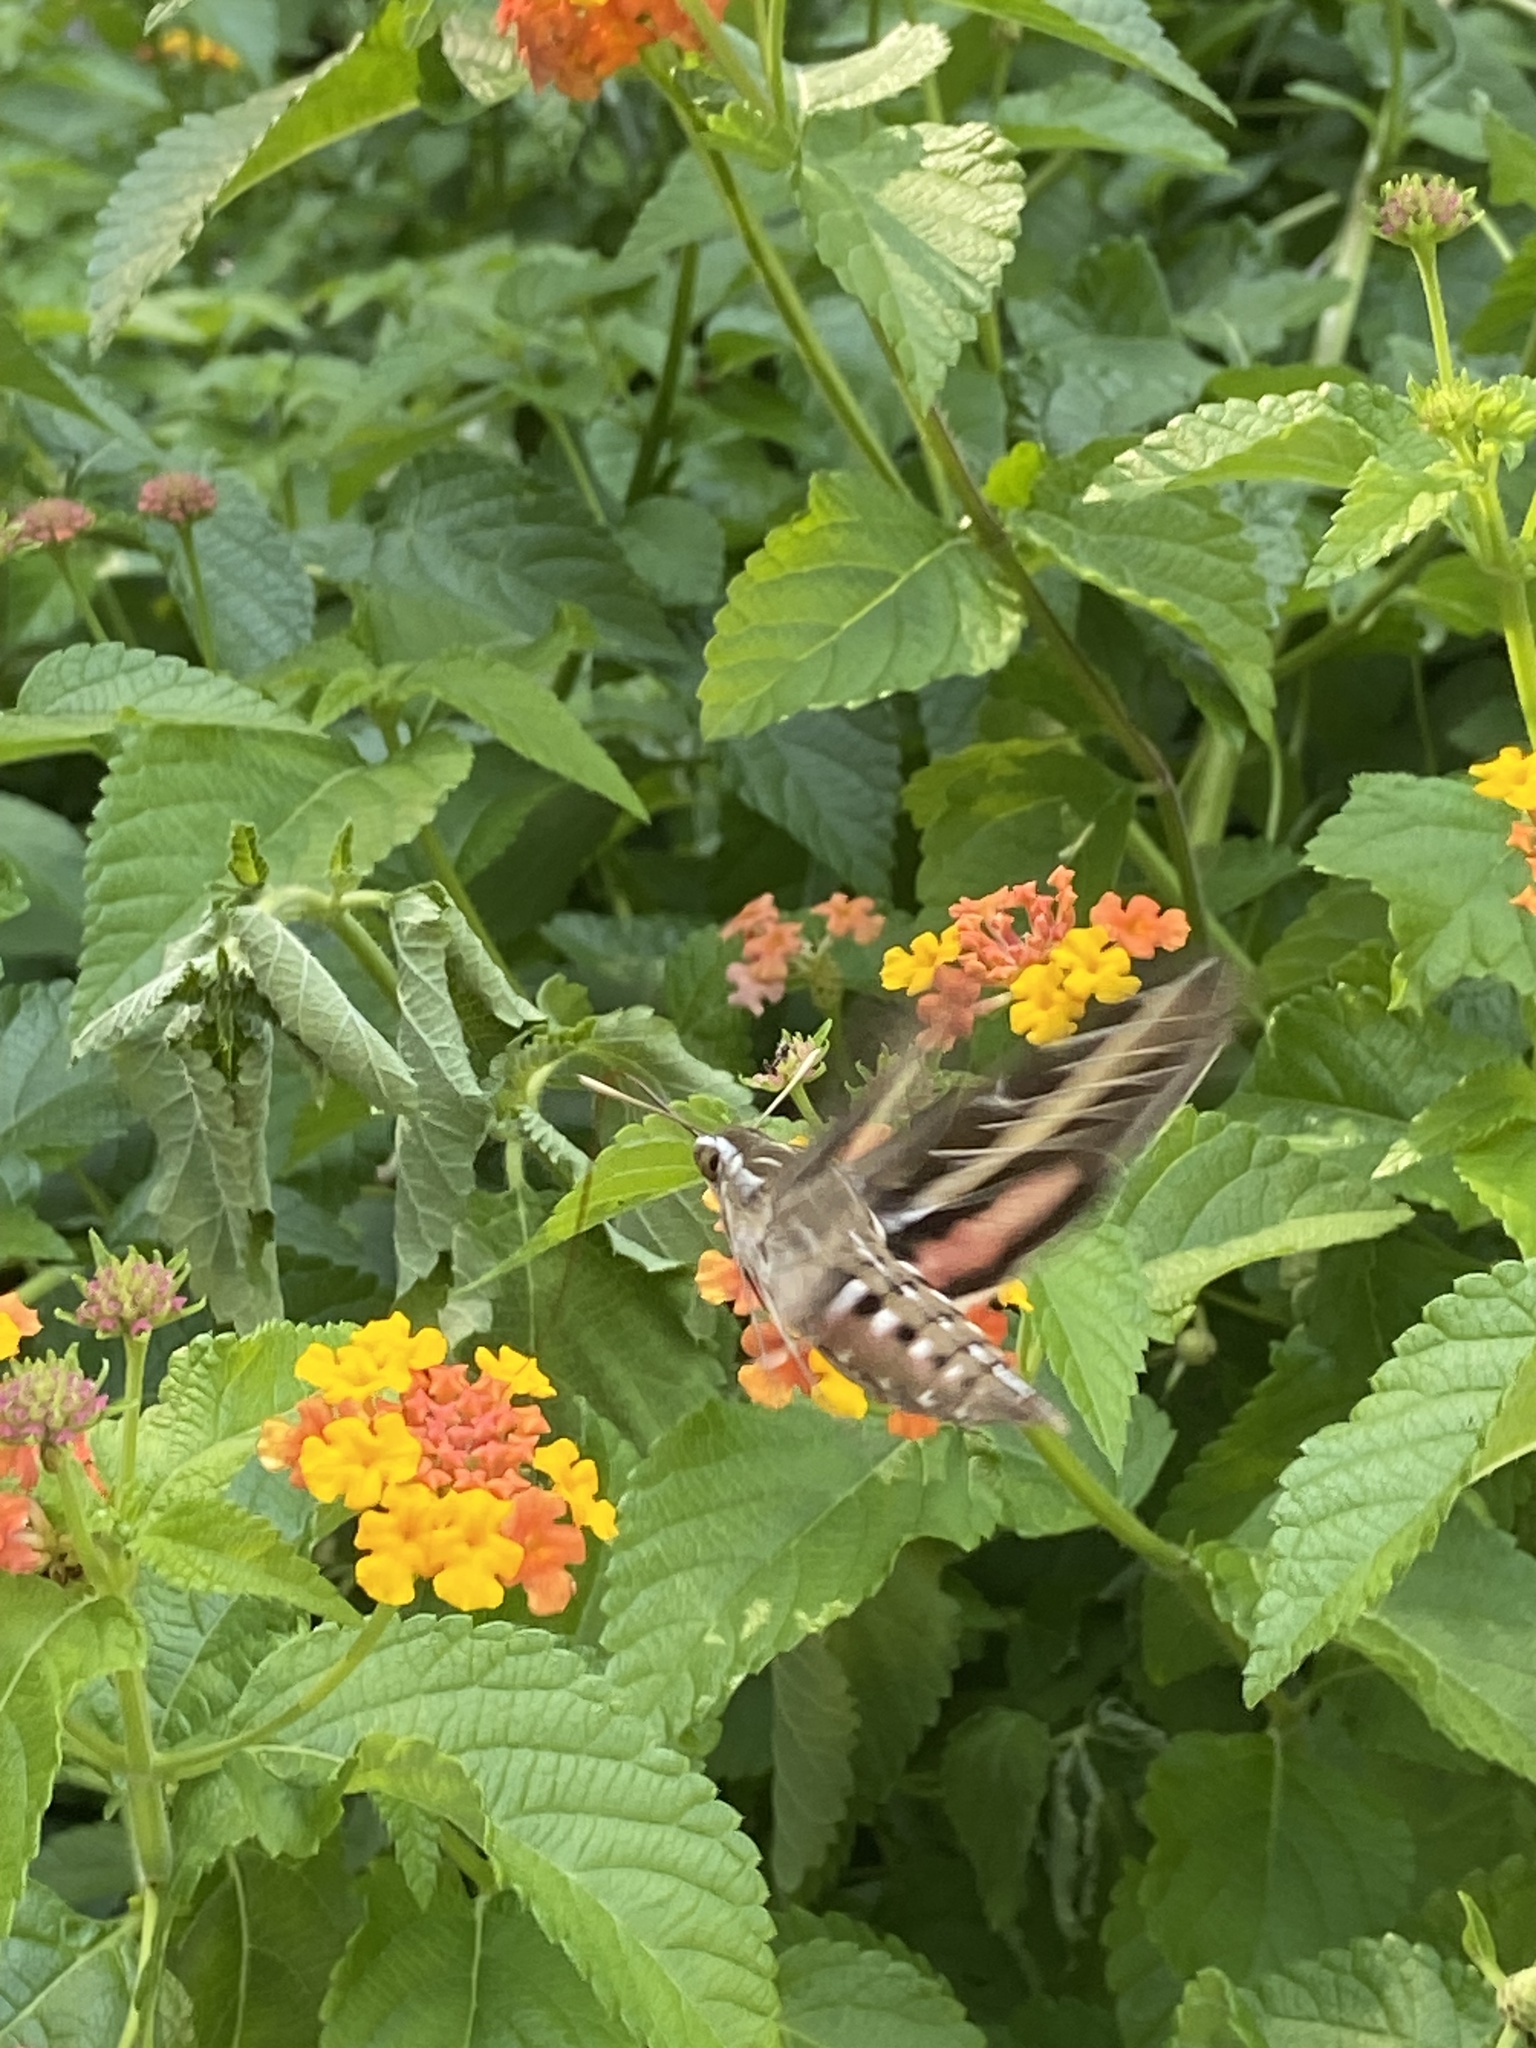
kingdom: Animalia
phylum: Arthropoda
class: Insecta
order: Lepidoptera
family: Sphingidae
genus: Hyles
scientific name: Hyles lineata
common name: White-lined sphinx
